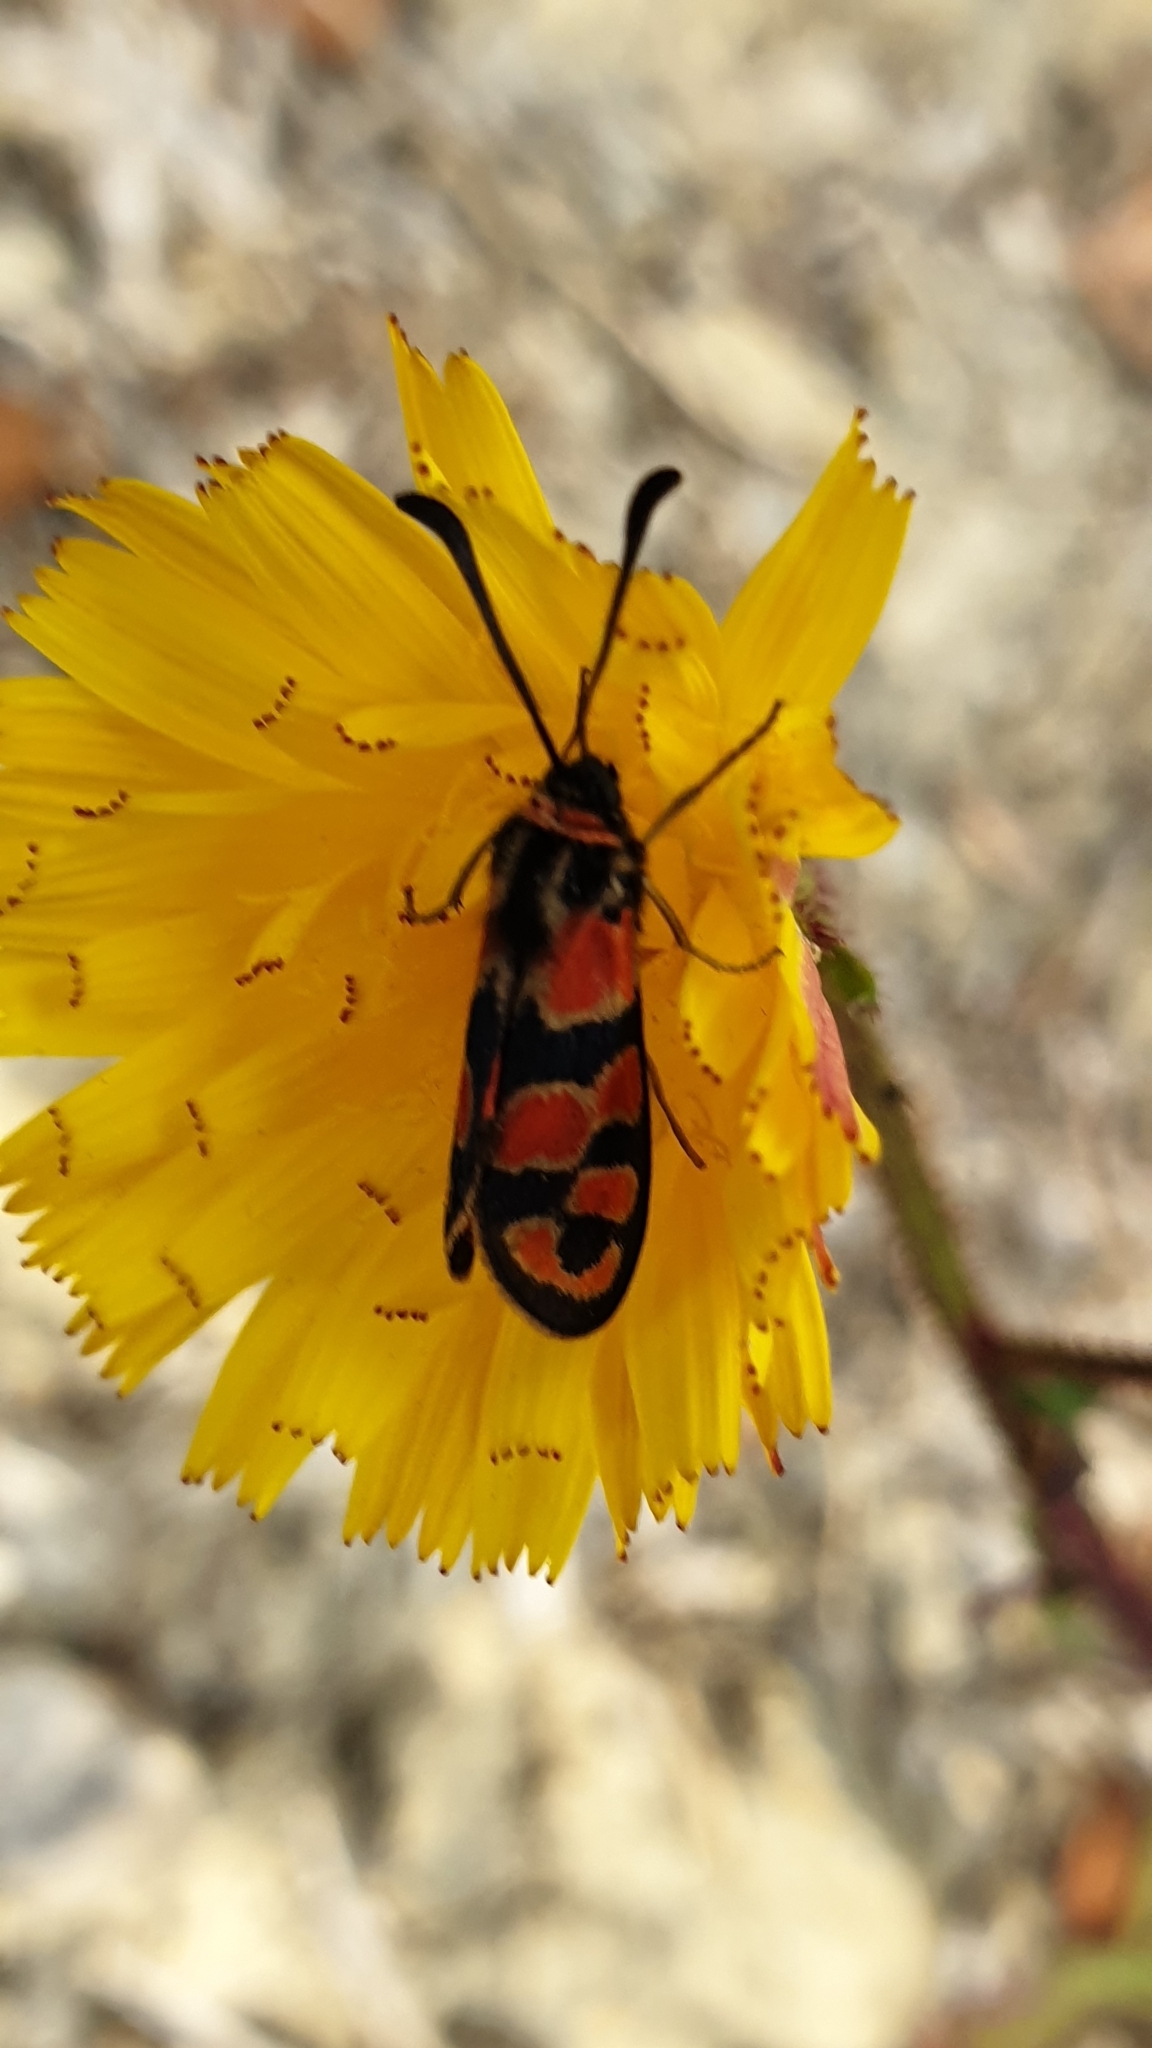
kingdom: Animalia
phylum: Arthropoda
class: Insecta
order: Lepidoptera
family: Zygaenidae
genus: Zygaena
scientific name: Zygaena fausta
